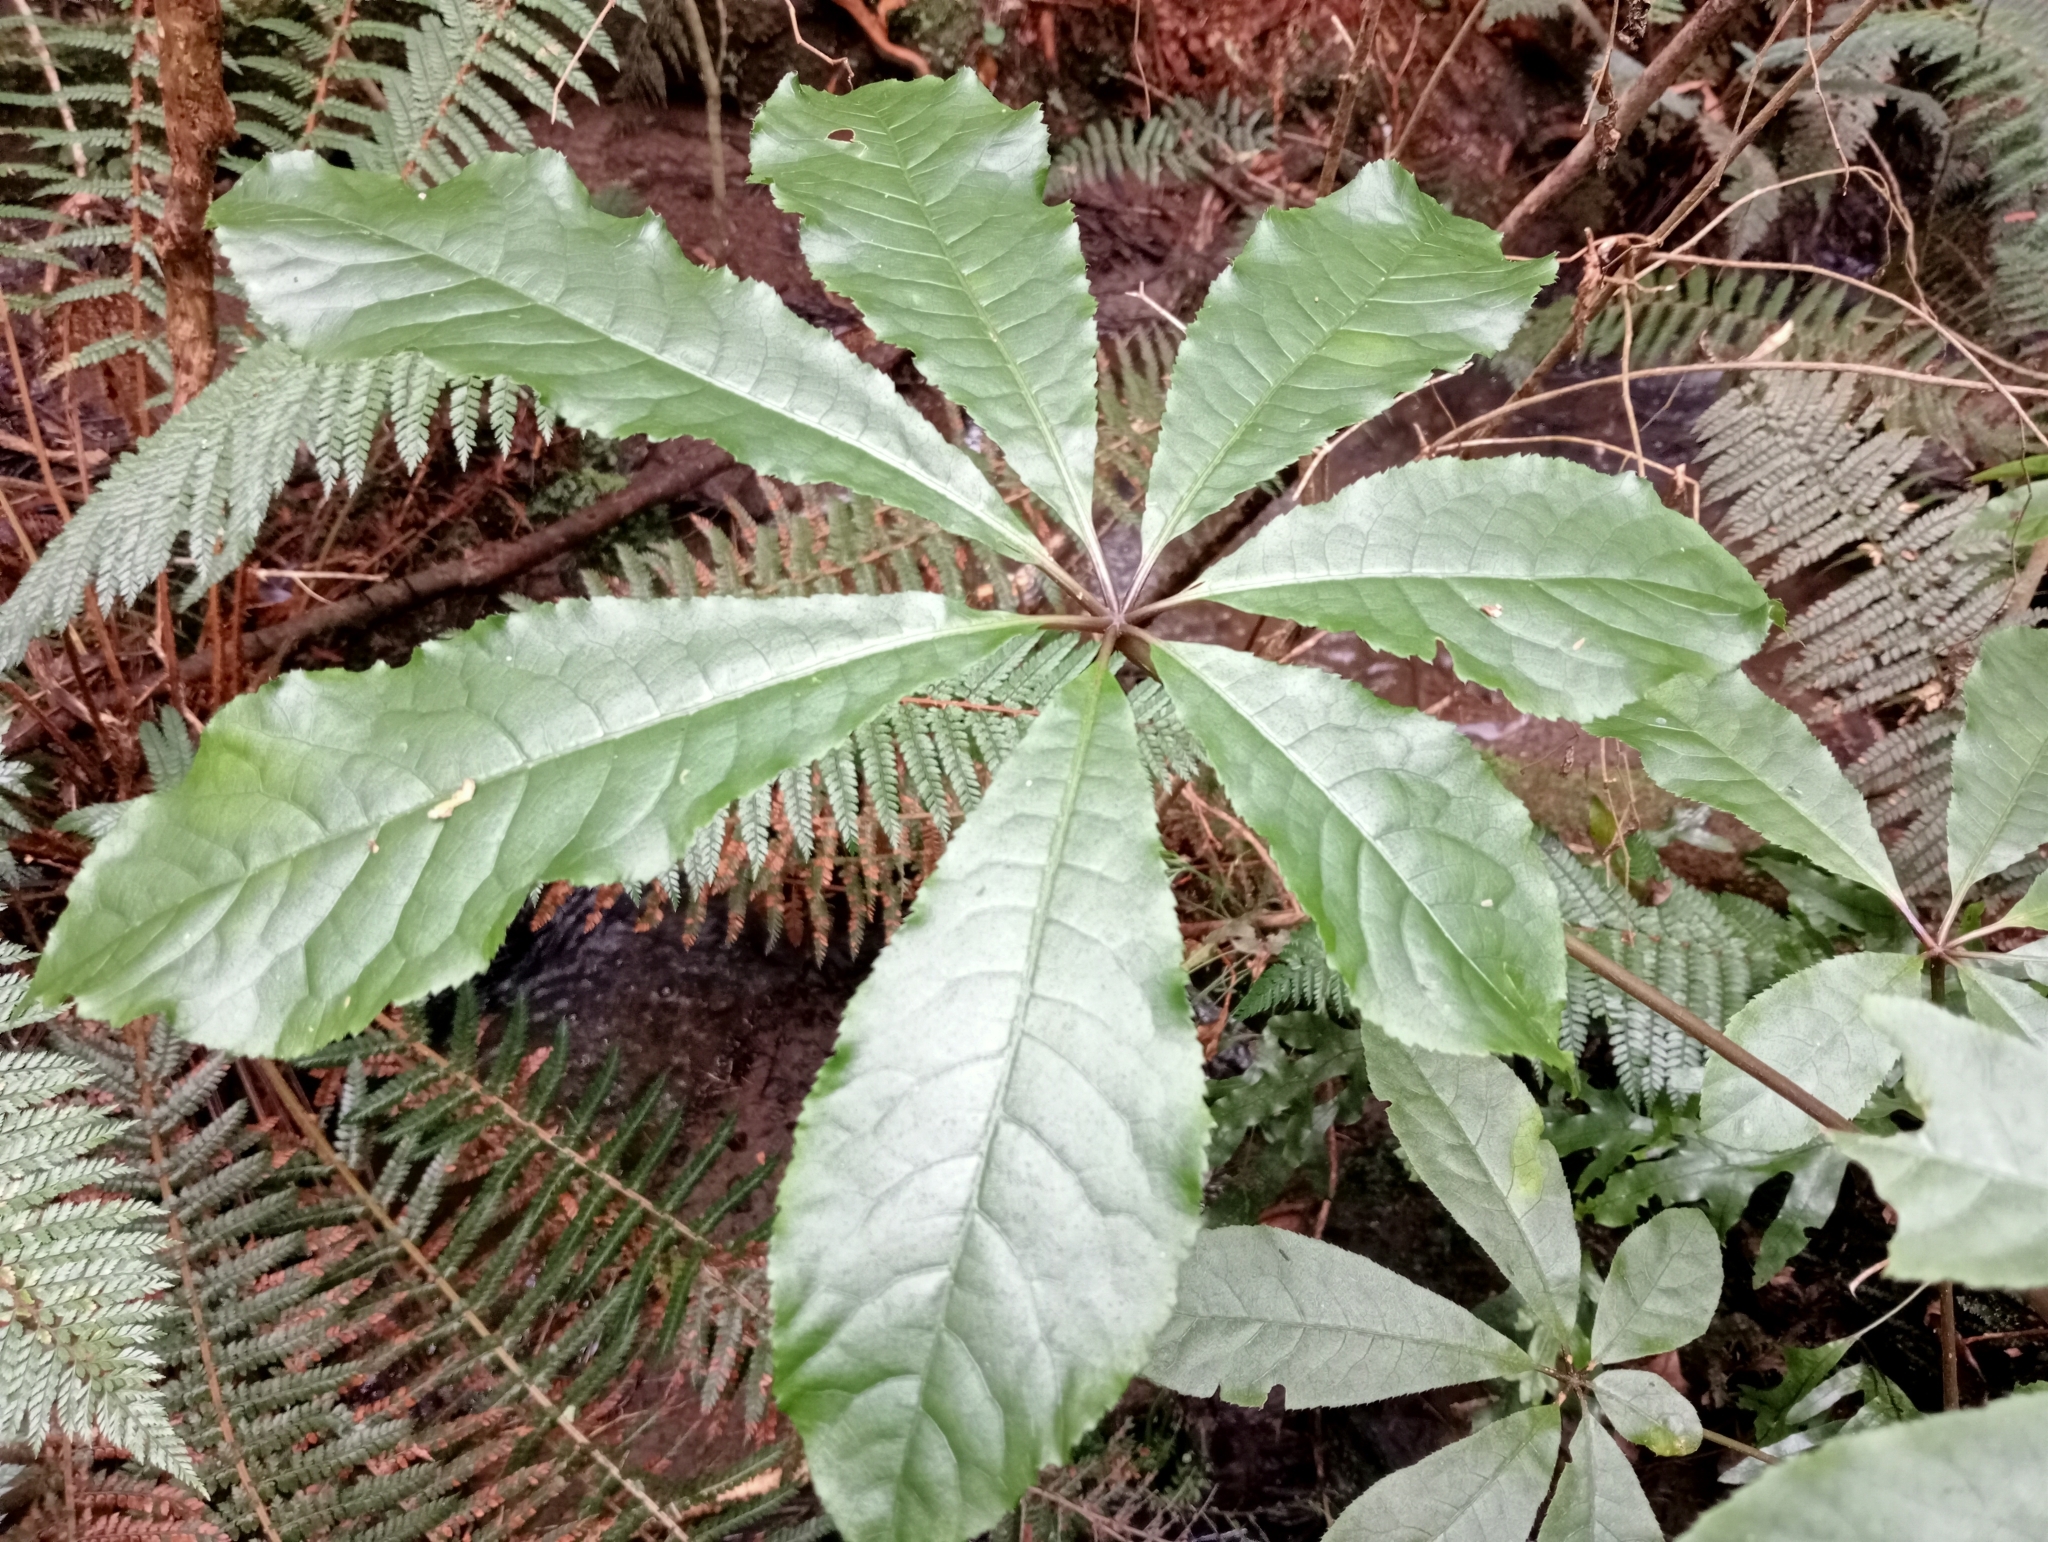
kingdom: Plantae
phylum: Tracheophyta
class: Magnoliopsida
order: Apiales
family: Araliaceae
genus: Schefflera
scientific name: Schefflera digitata
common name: Pate
